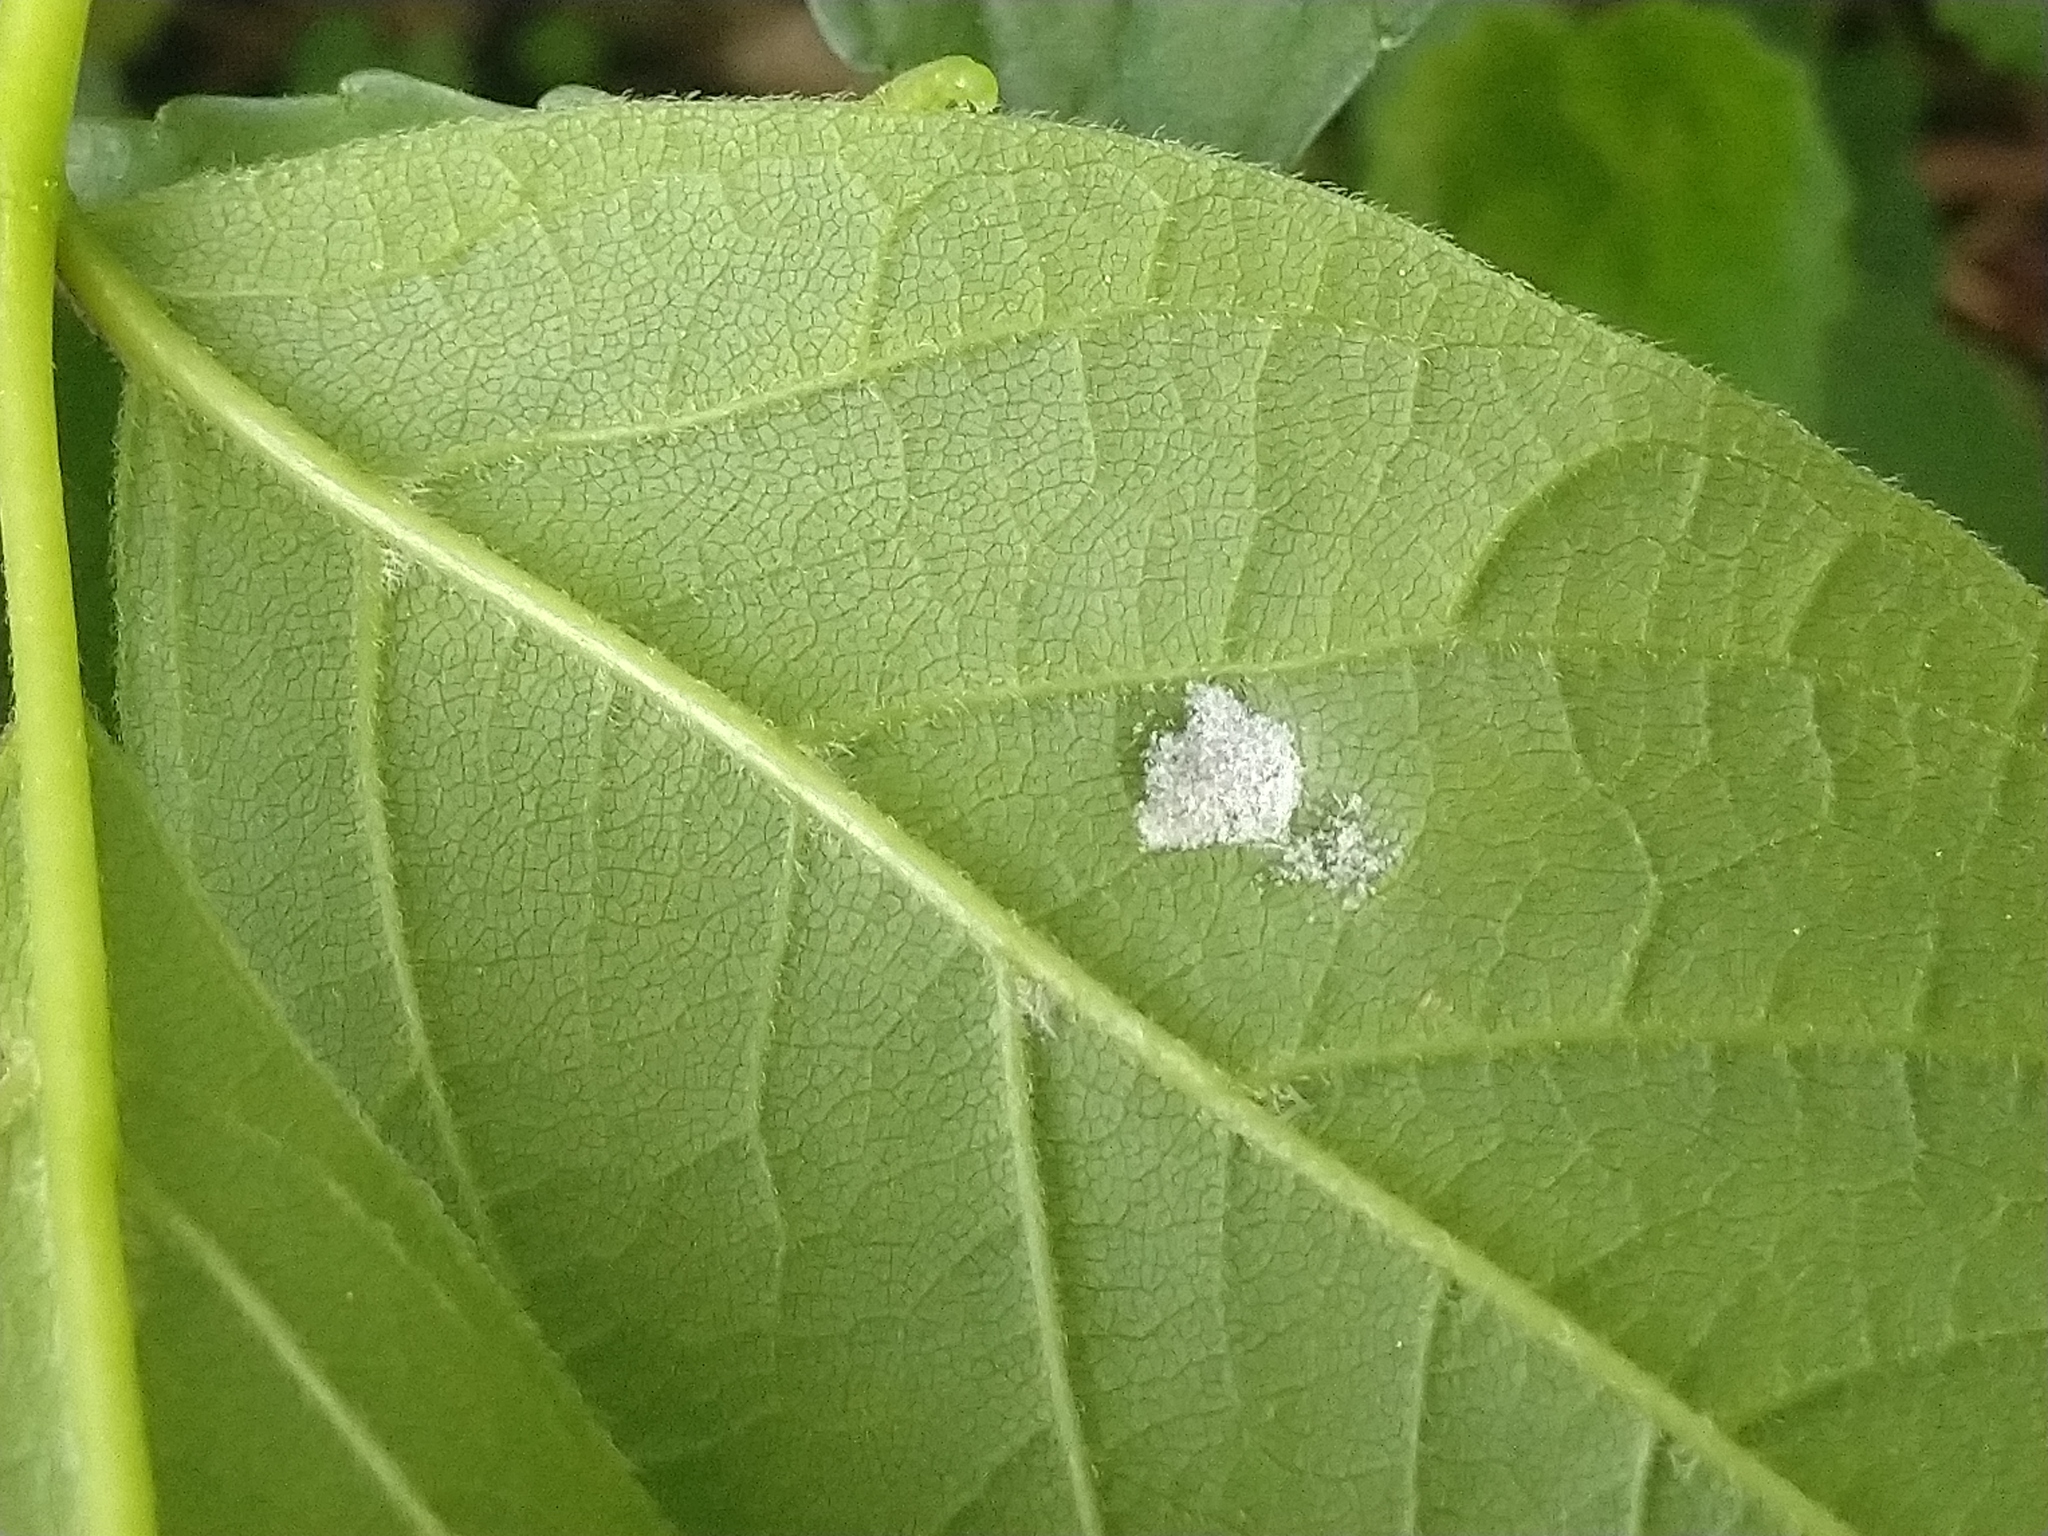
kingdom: Animalia
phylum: Arthropoda
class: Arachnida
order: Trombidiformes
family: Eriophyidae
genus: Aceria
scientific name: Aceria
